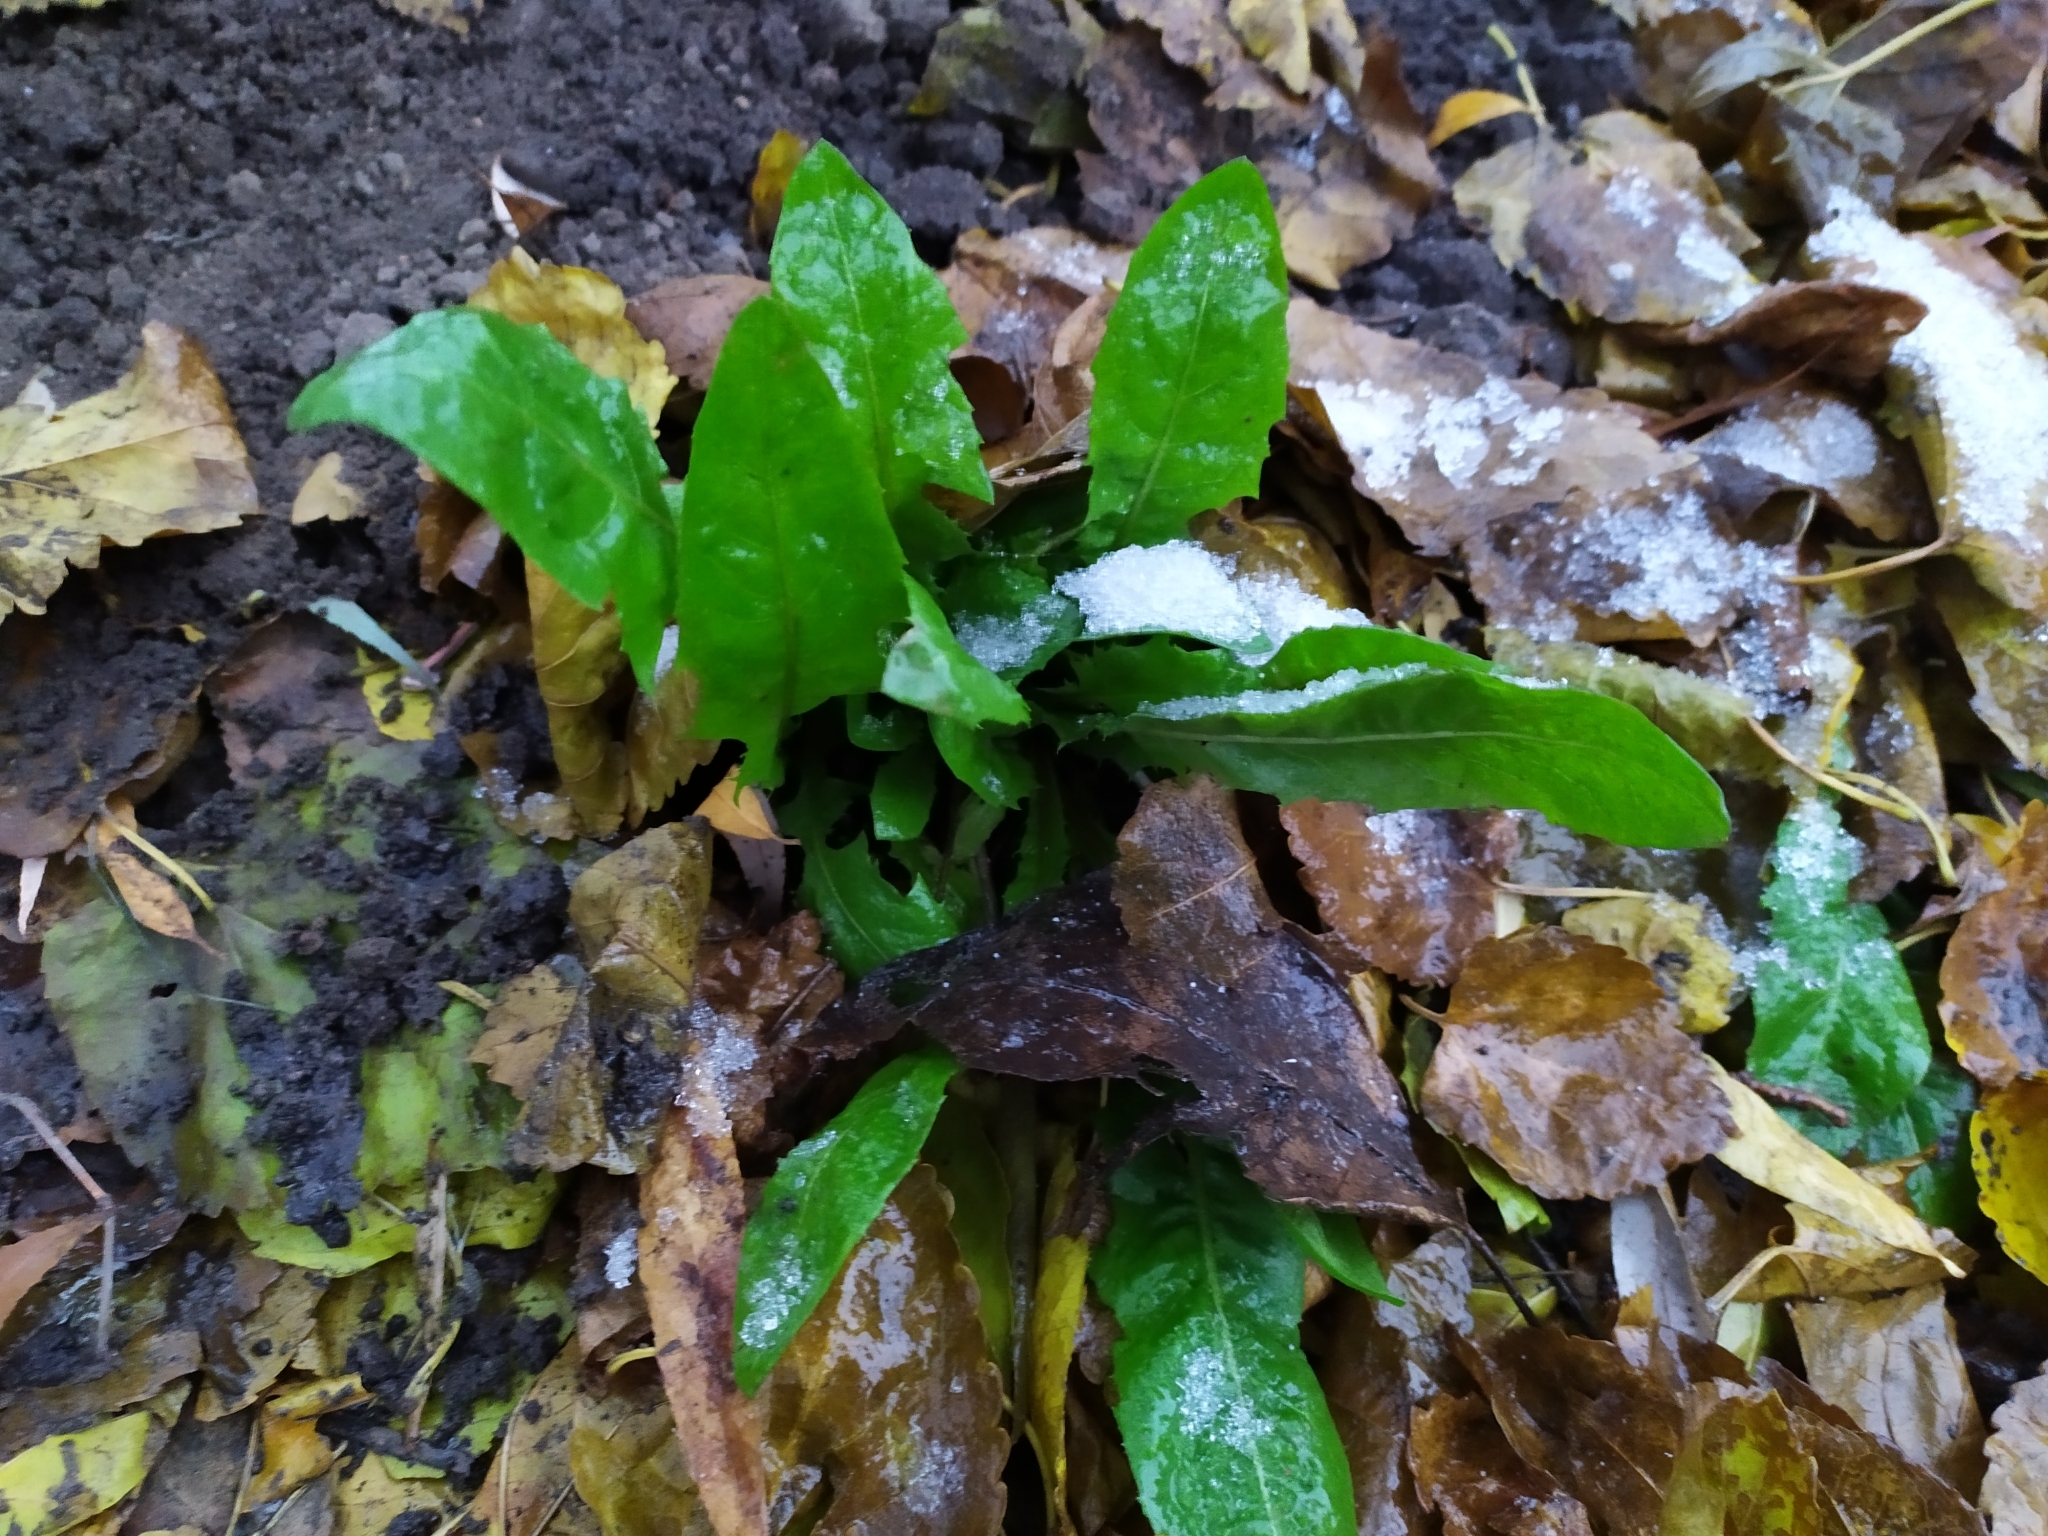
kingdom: Plantae
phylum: Tracheophyta
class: Magnoliopsida
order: Asterales
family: Asteraceae
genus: Taraxacum
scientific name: Taraxacum officinale
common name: Common dandelion
